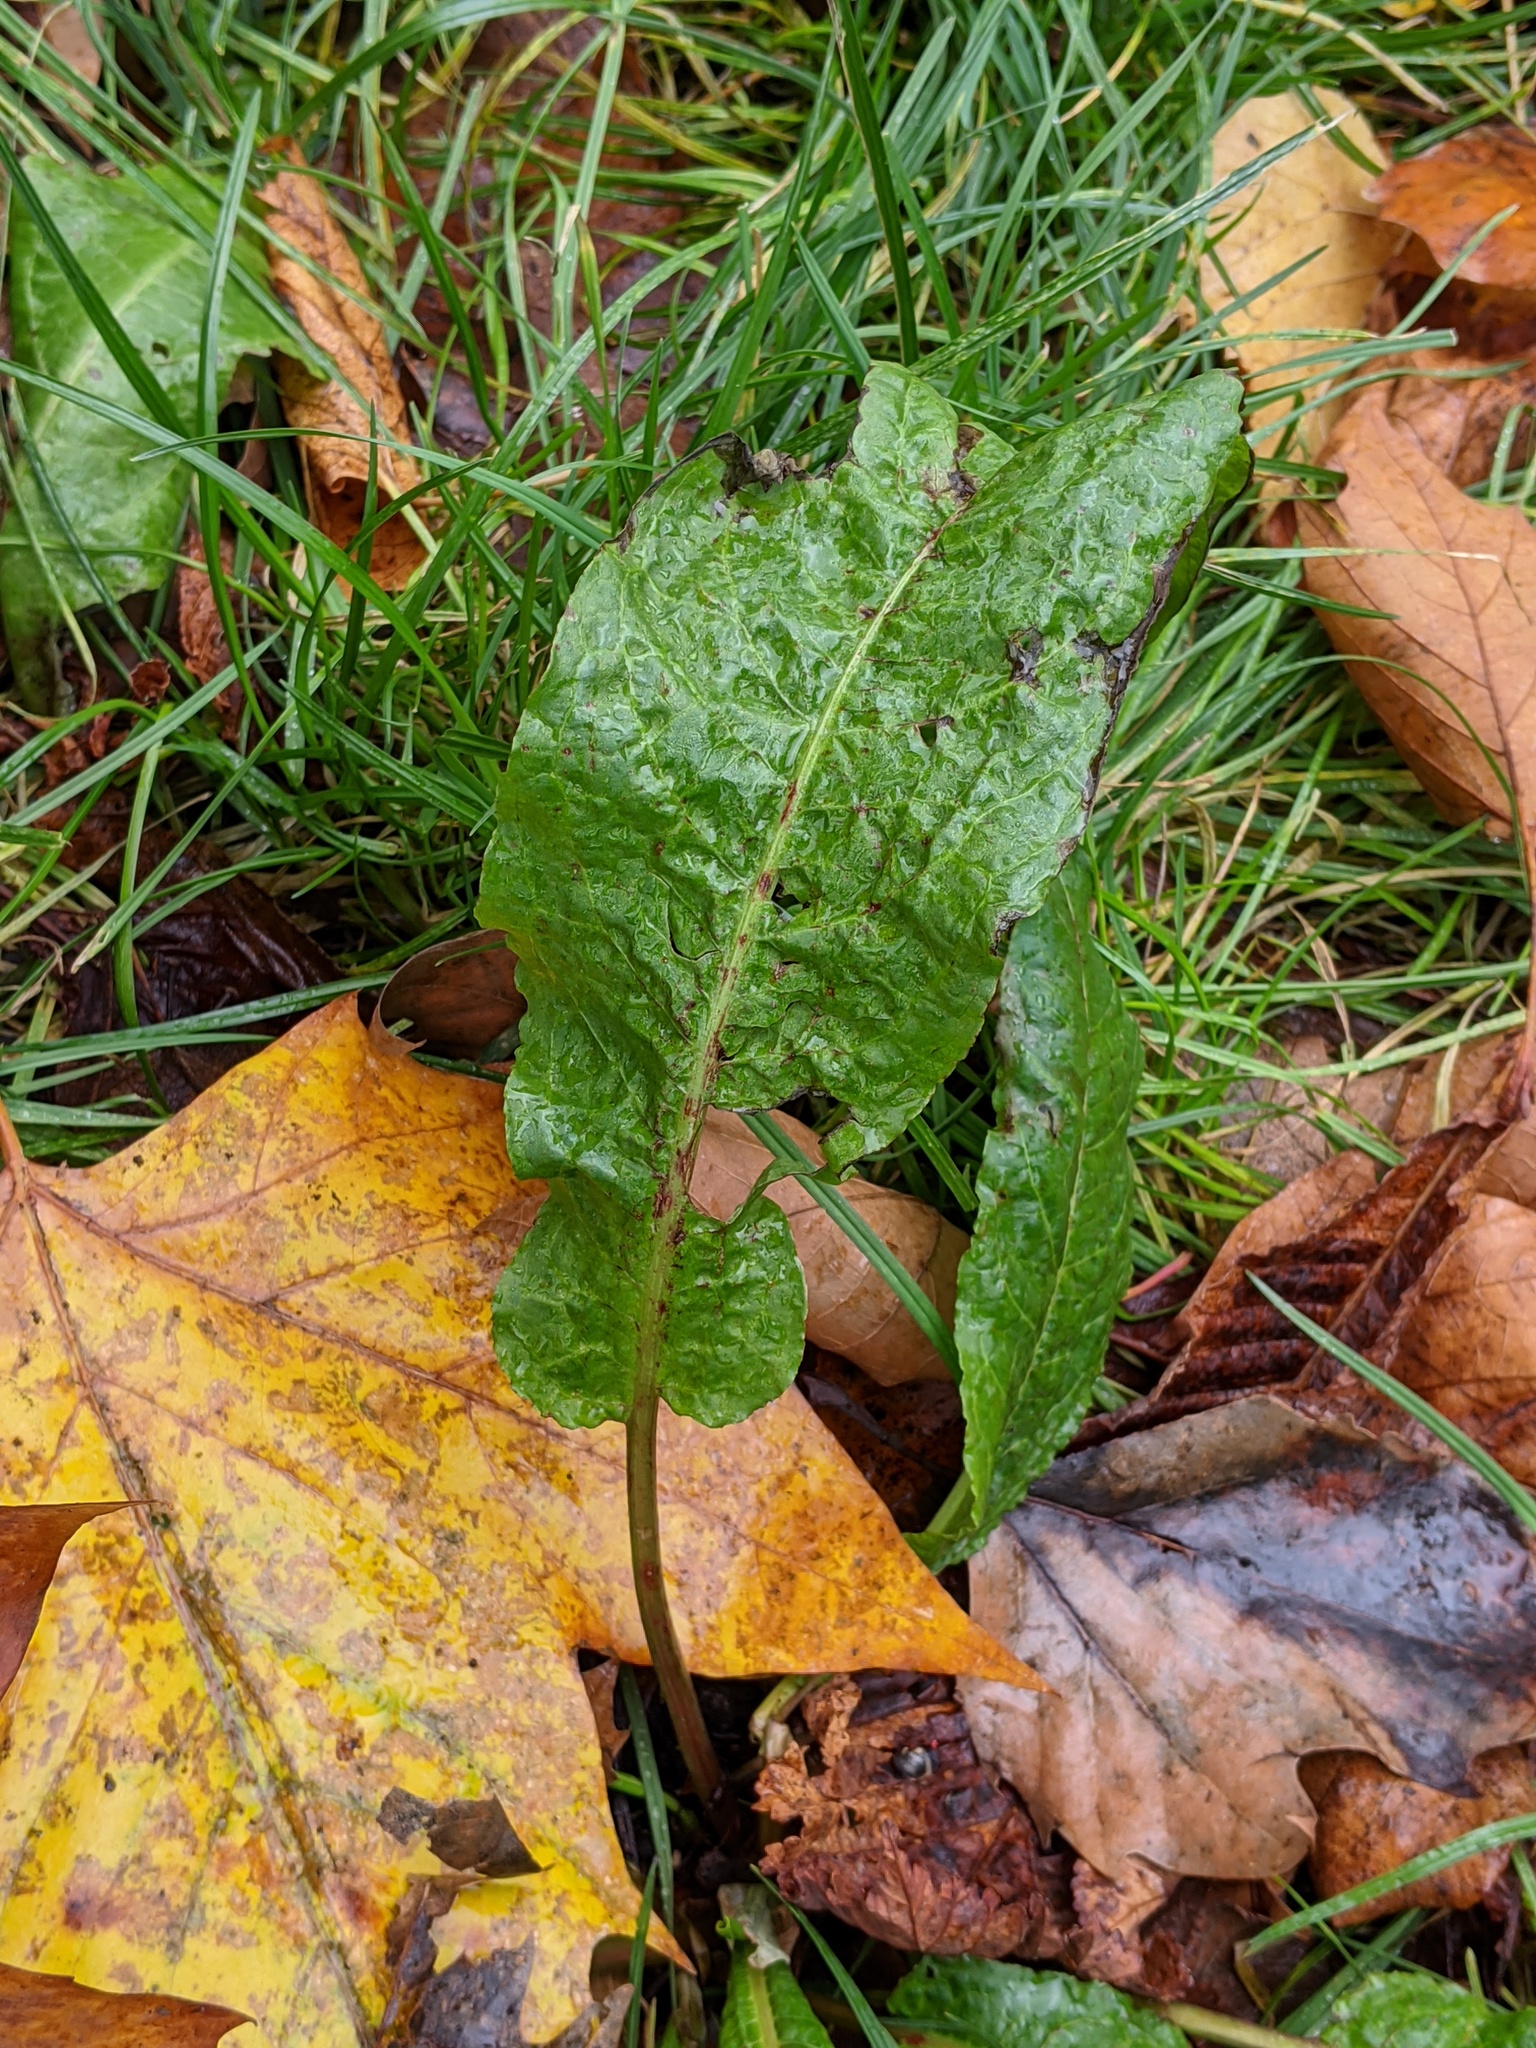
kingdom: Plantae
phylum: Tracheophyta
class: Magnoliopsida
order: Caryophyllales
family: Polygonaceae
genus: Rumex
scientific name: Rumex obtusifolius
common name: Bitter dock
